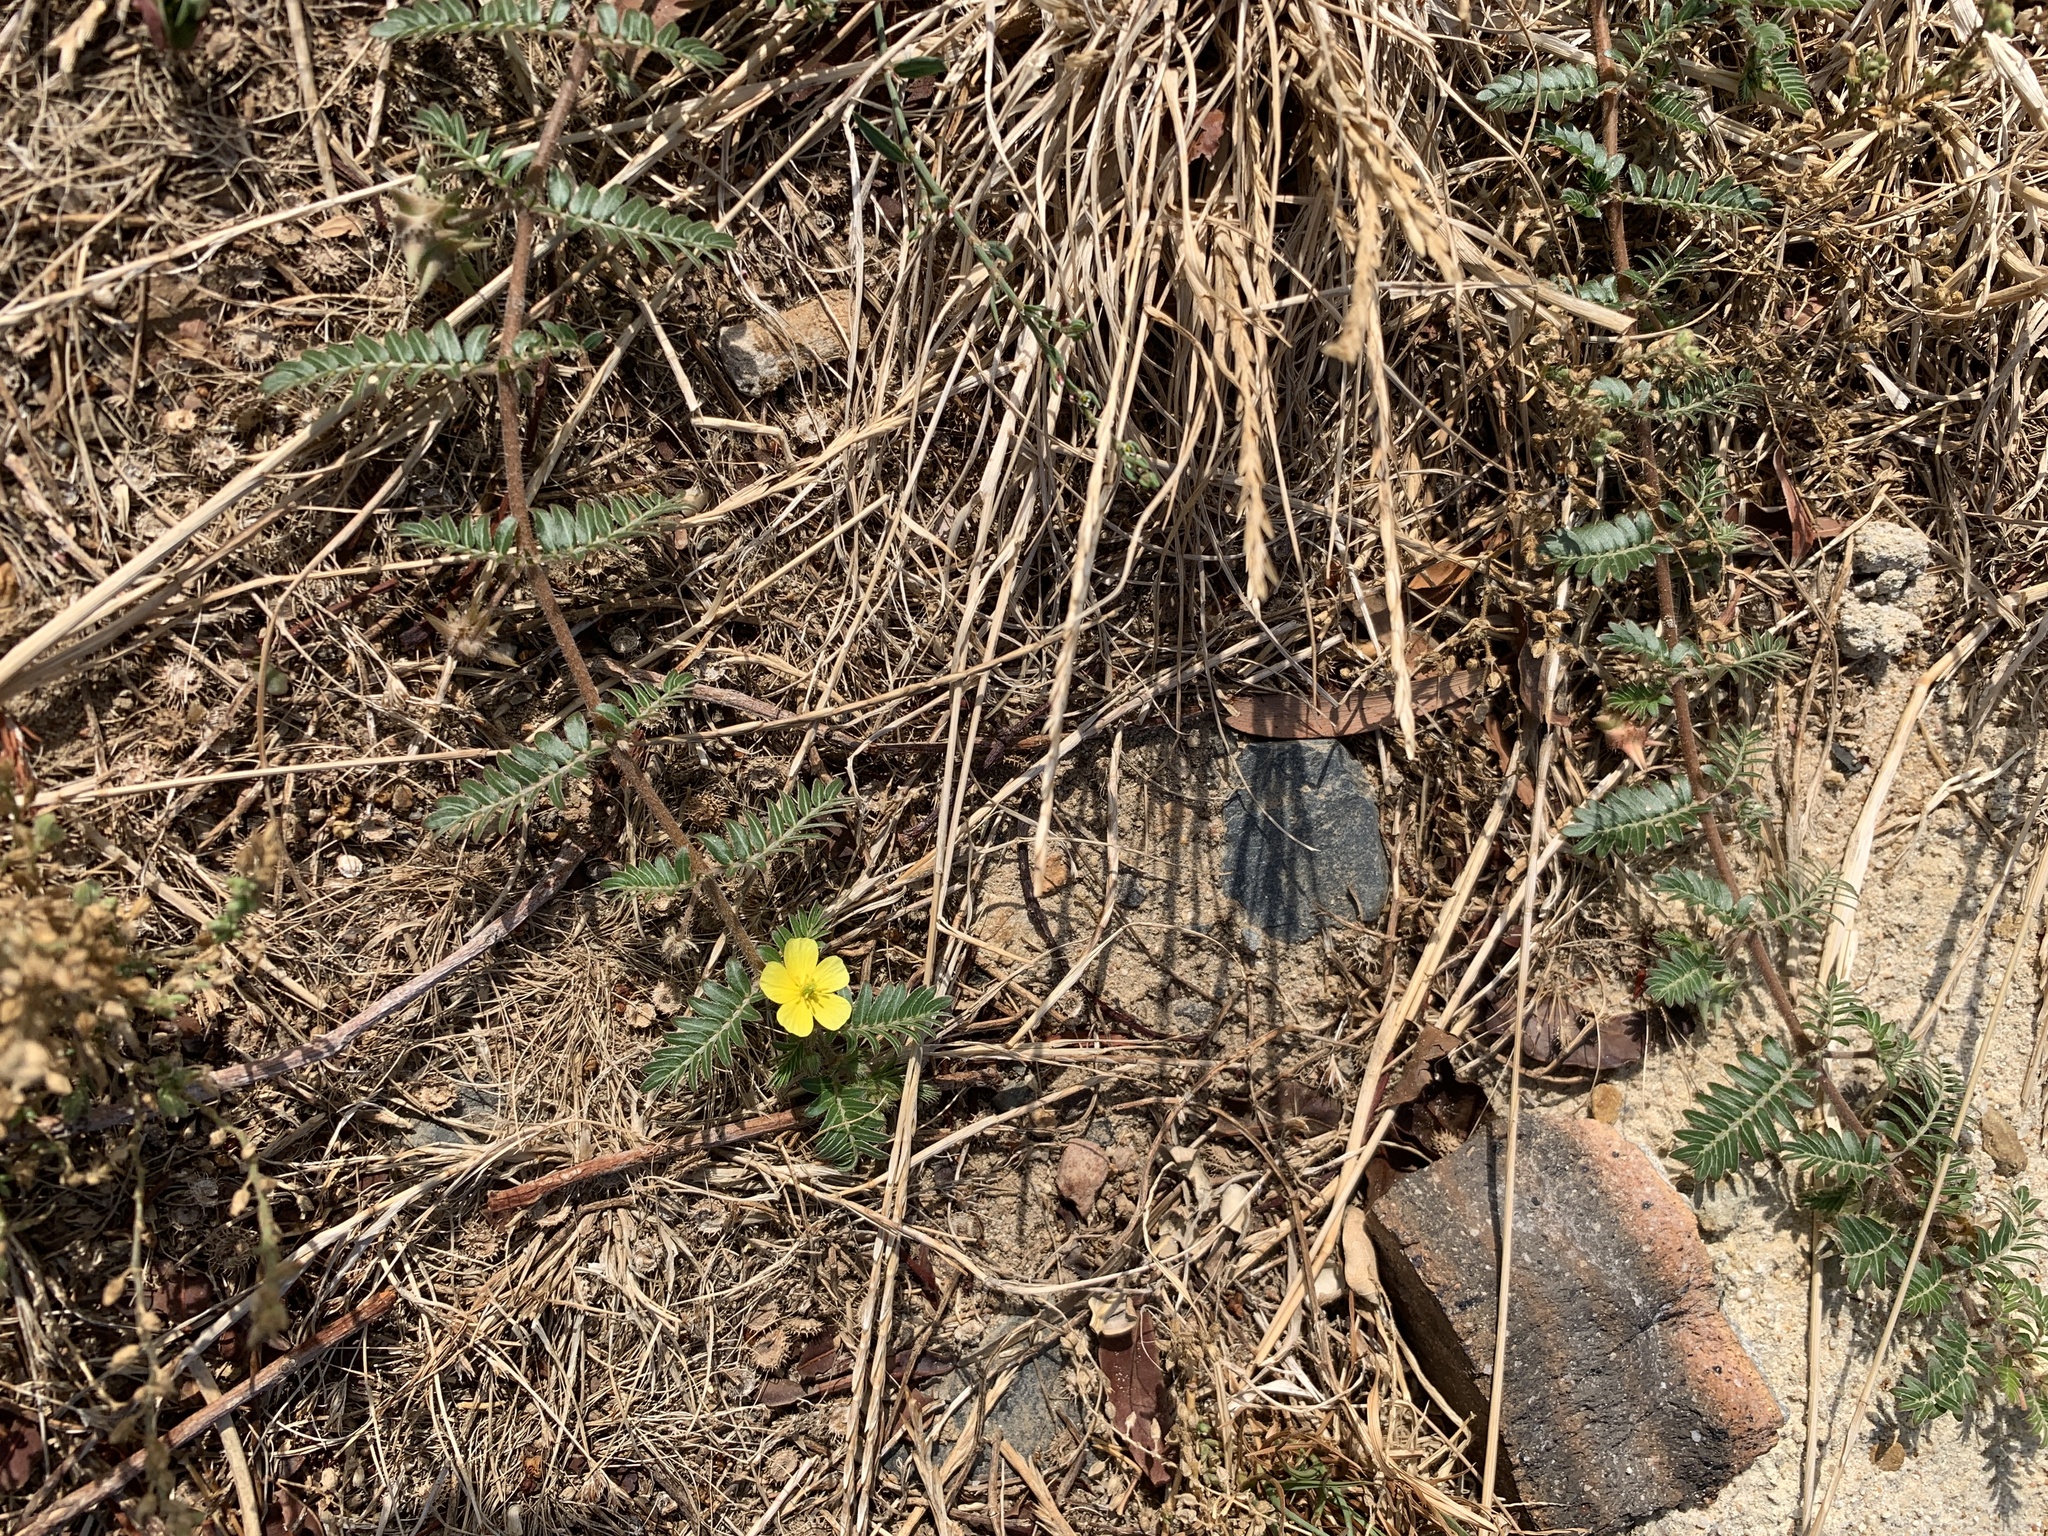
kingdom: Plantae
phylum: Tracheophyta
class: Magnoliopsida
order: Zygophyllales
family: Zygophyllaceae
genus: Tribulus
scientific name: Tribulus terrestris
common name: Puncturevine
